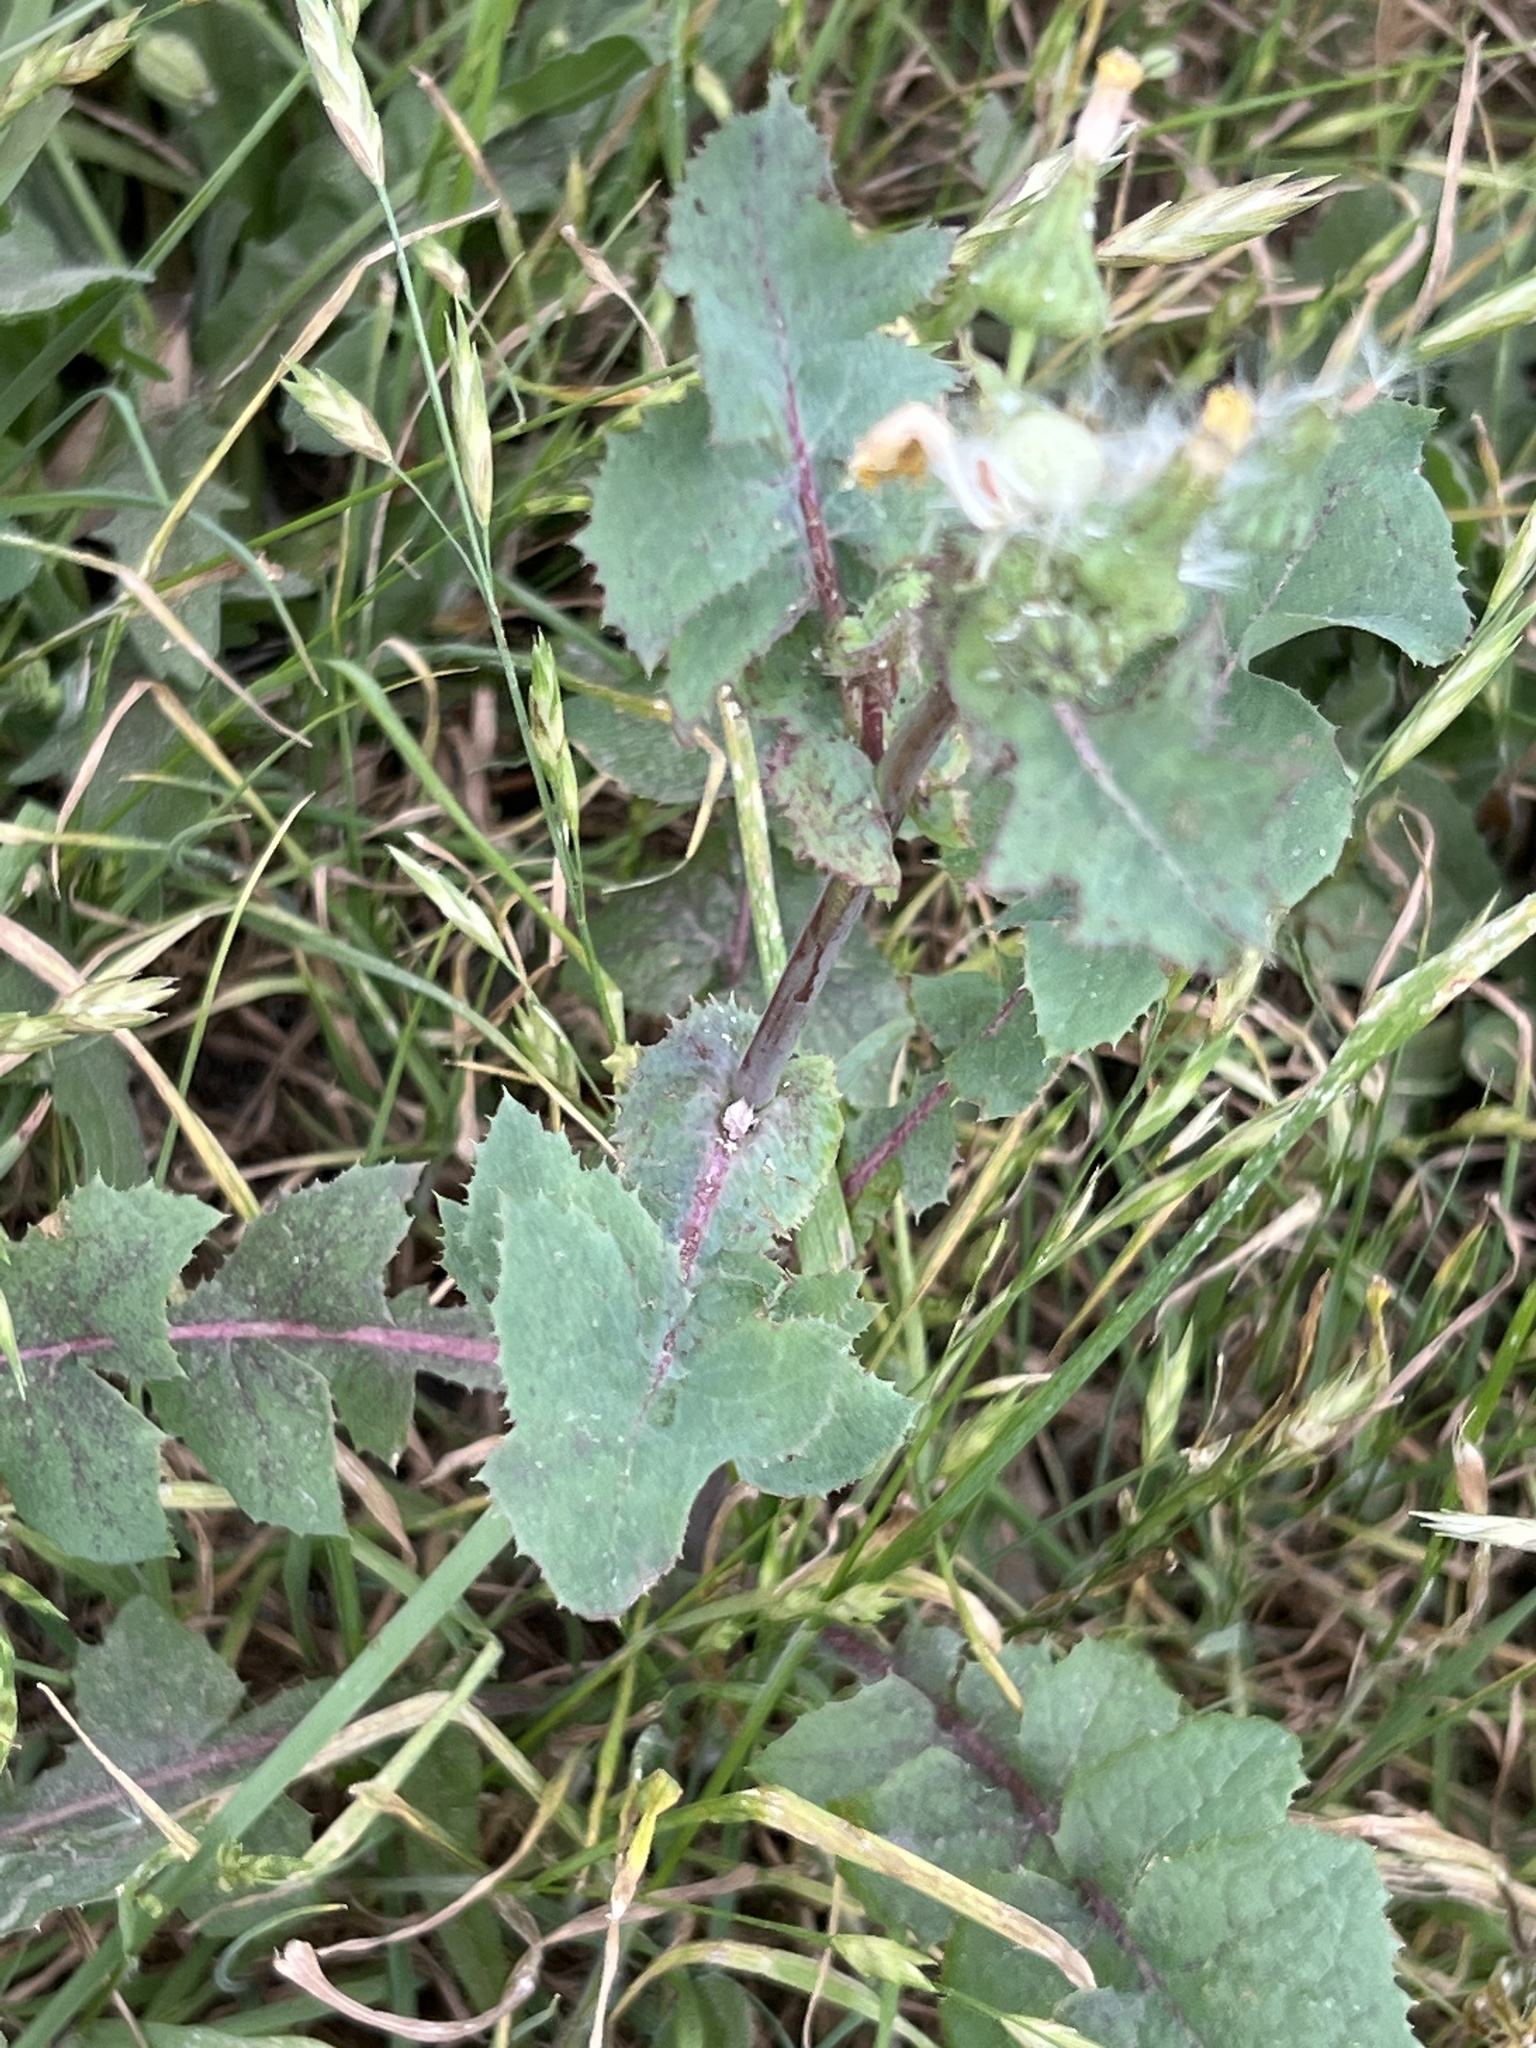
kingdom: Plantae
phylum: Tracheophyta
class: Magnoliopsida
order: Asterales
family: Asteraceae
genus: Sonchus
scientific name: Sonchus oleraceus
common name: Common sowthistle
